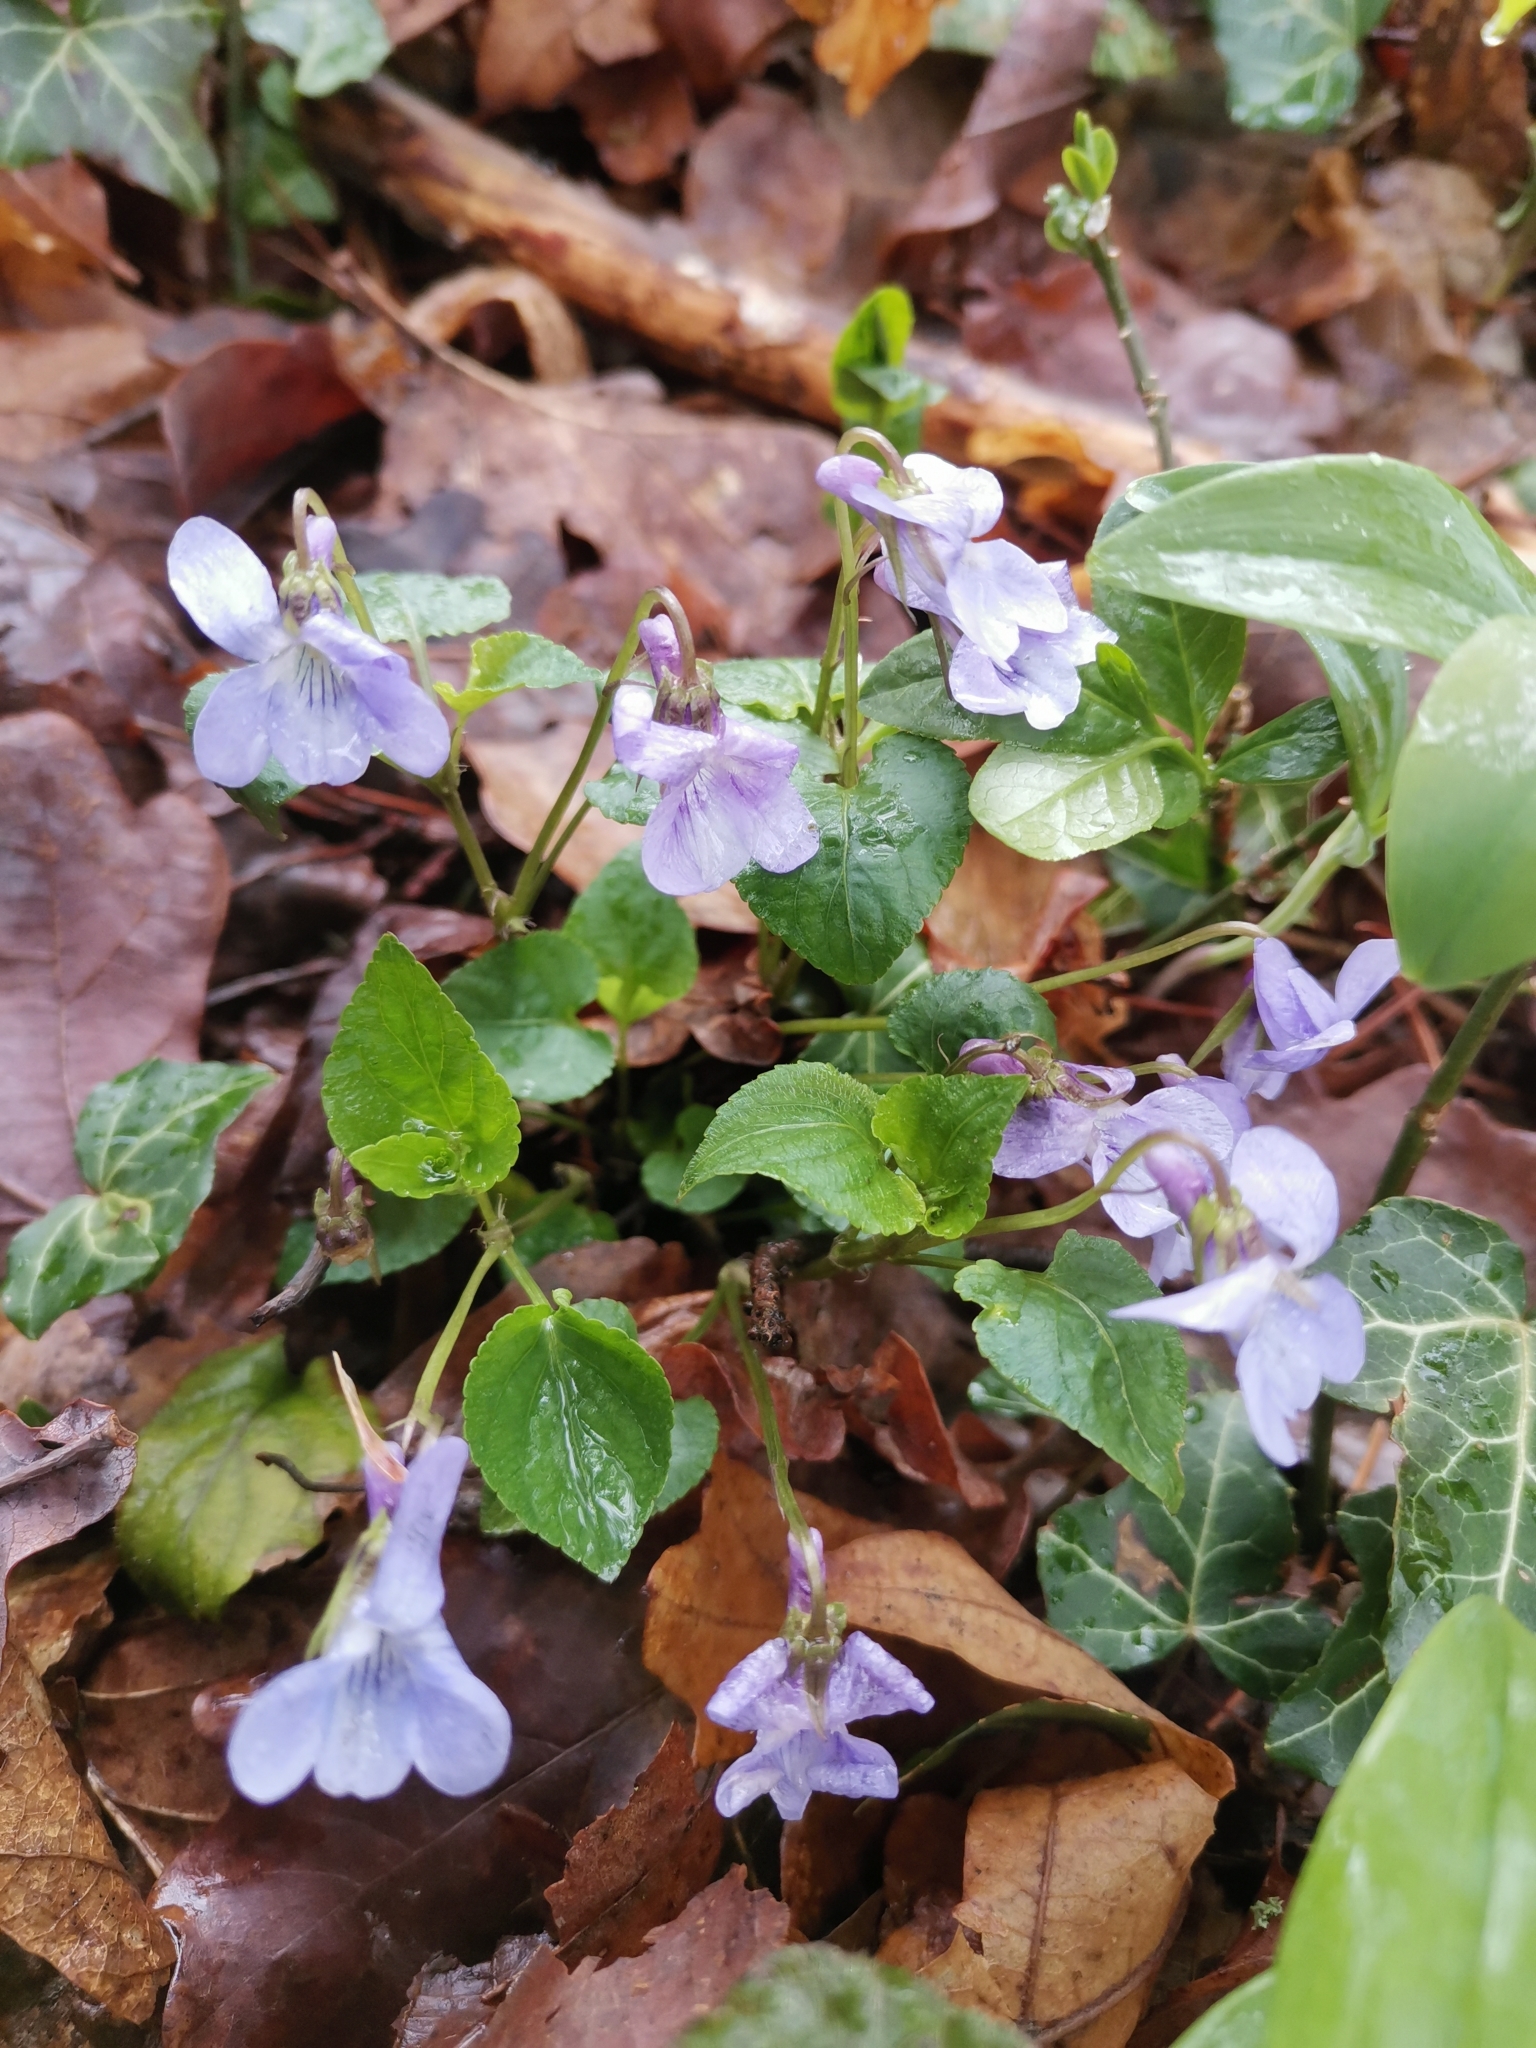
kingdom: Plantae
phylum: Tracheophyta
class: Magnoliopsida
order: Malpighiales
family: Violaceae
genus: Viola
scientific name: Viola reichenbachiana
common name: Early dog-violet
